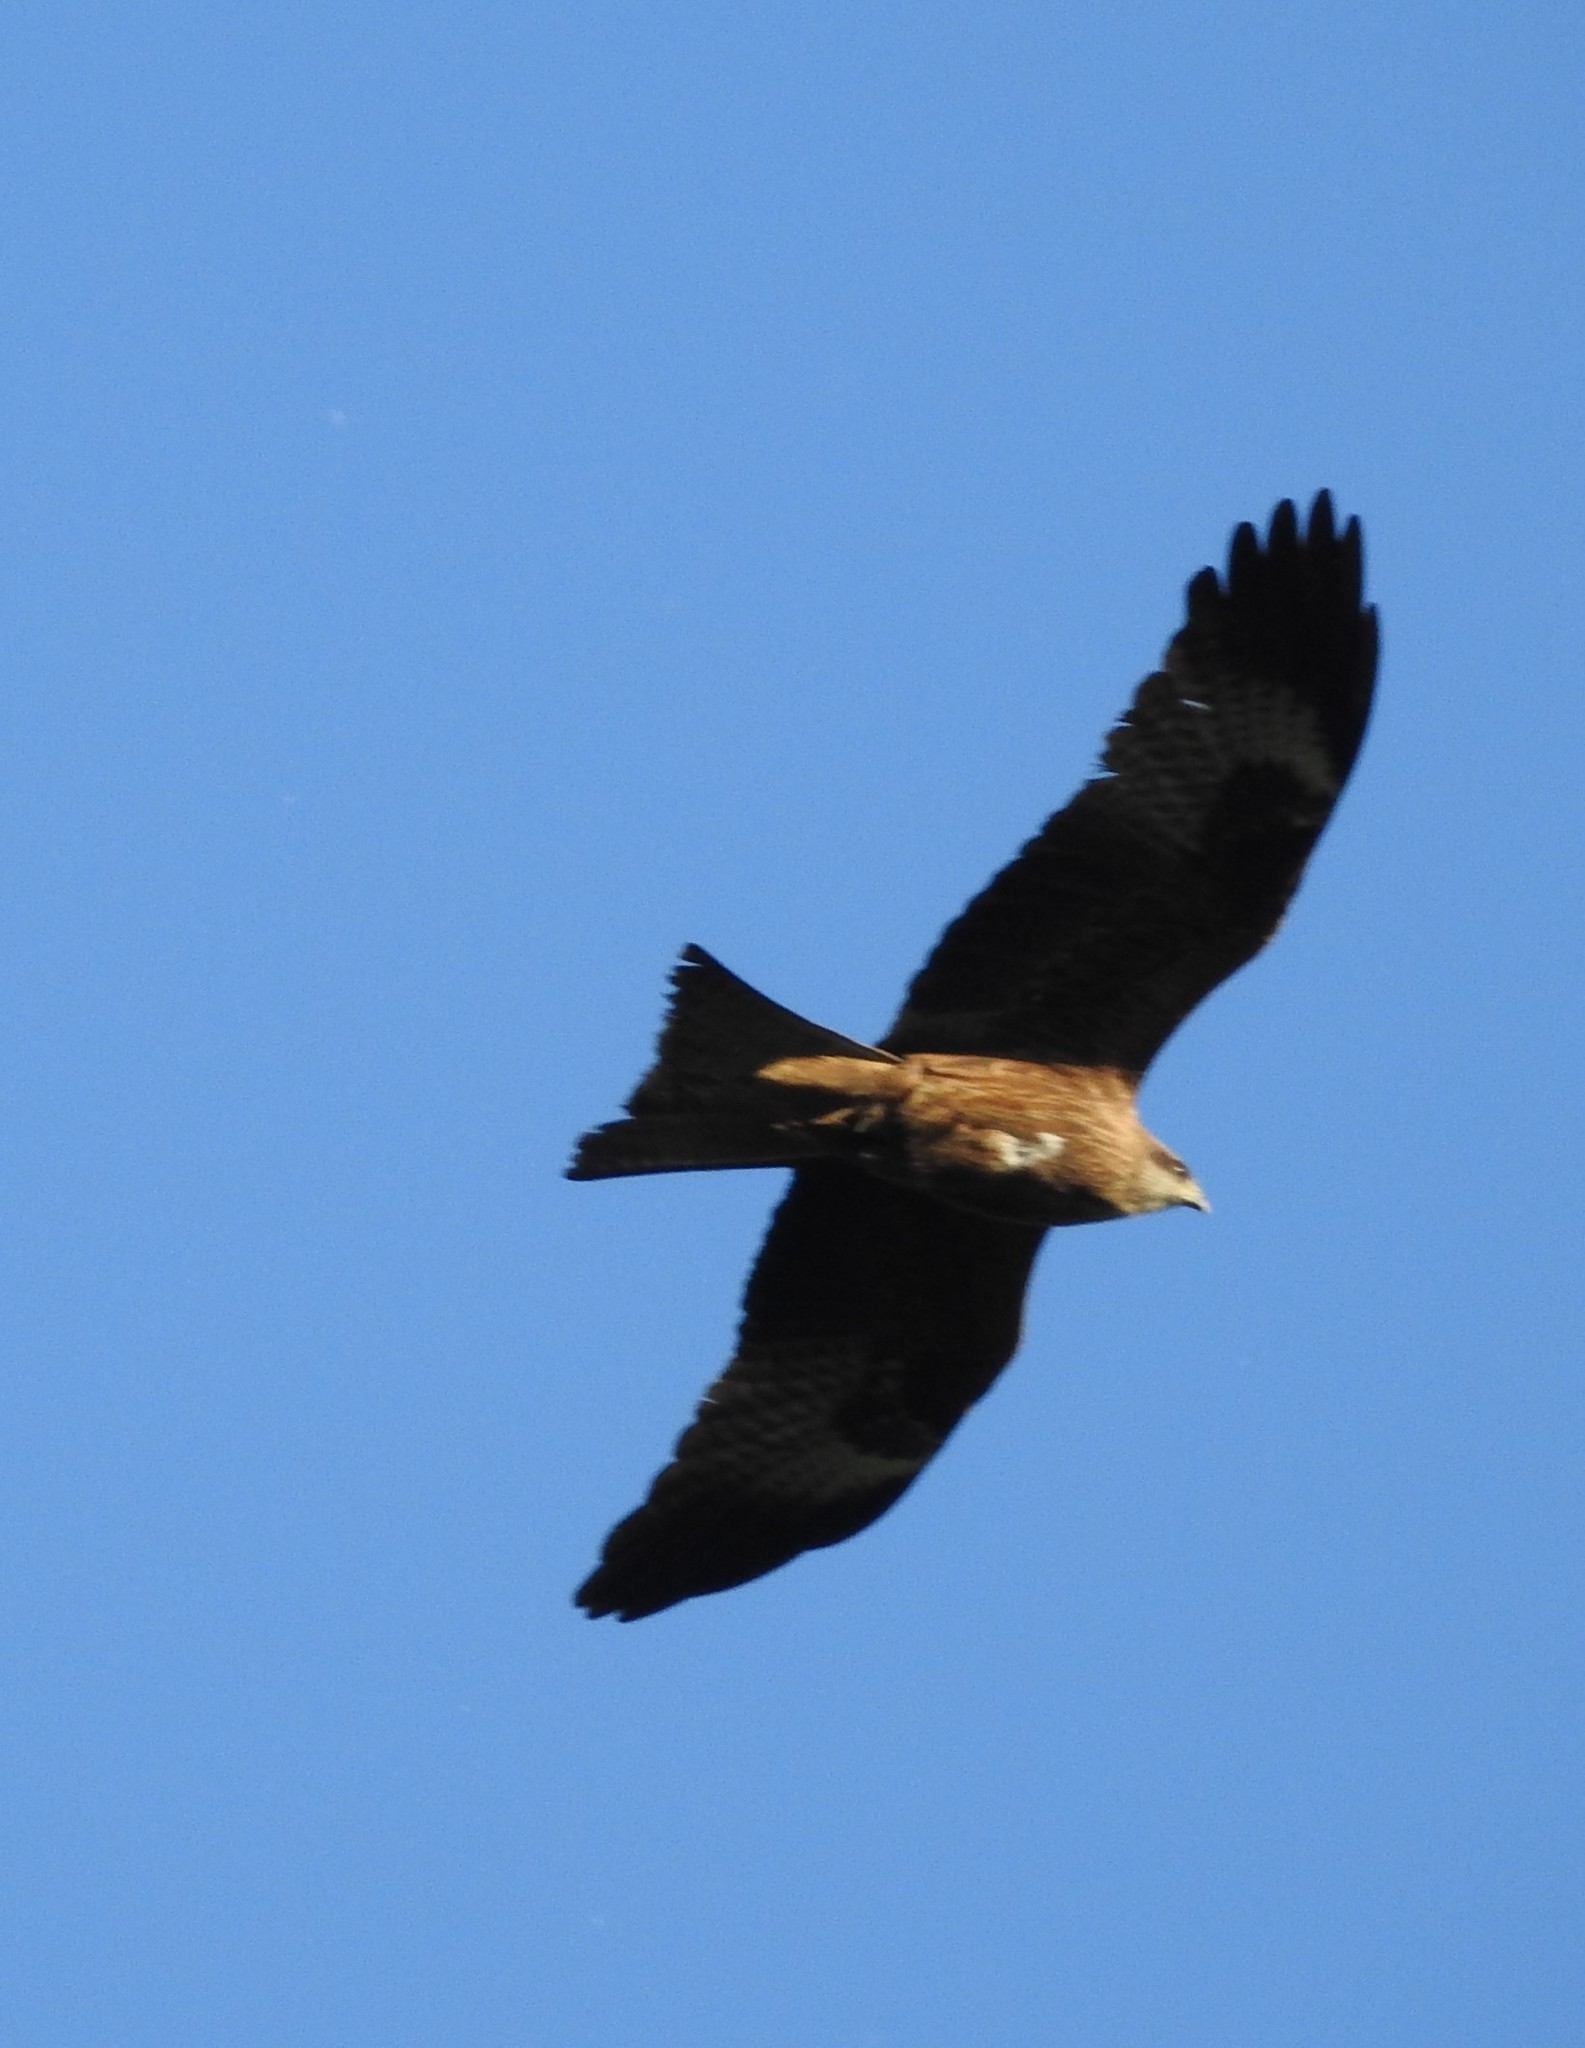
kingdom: Animalia
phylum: Chordata
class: Aves
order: Accipitriformes
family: Accipitridae
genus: Milvus
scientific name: Milvus migrans
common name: Black kite
